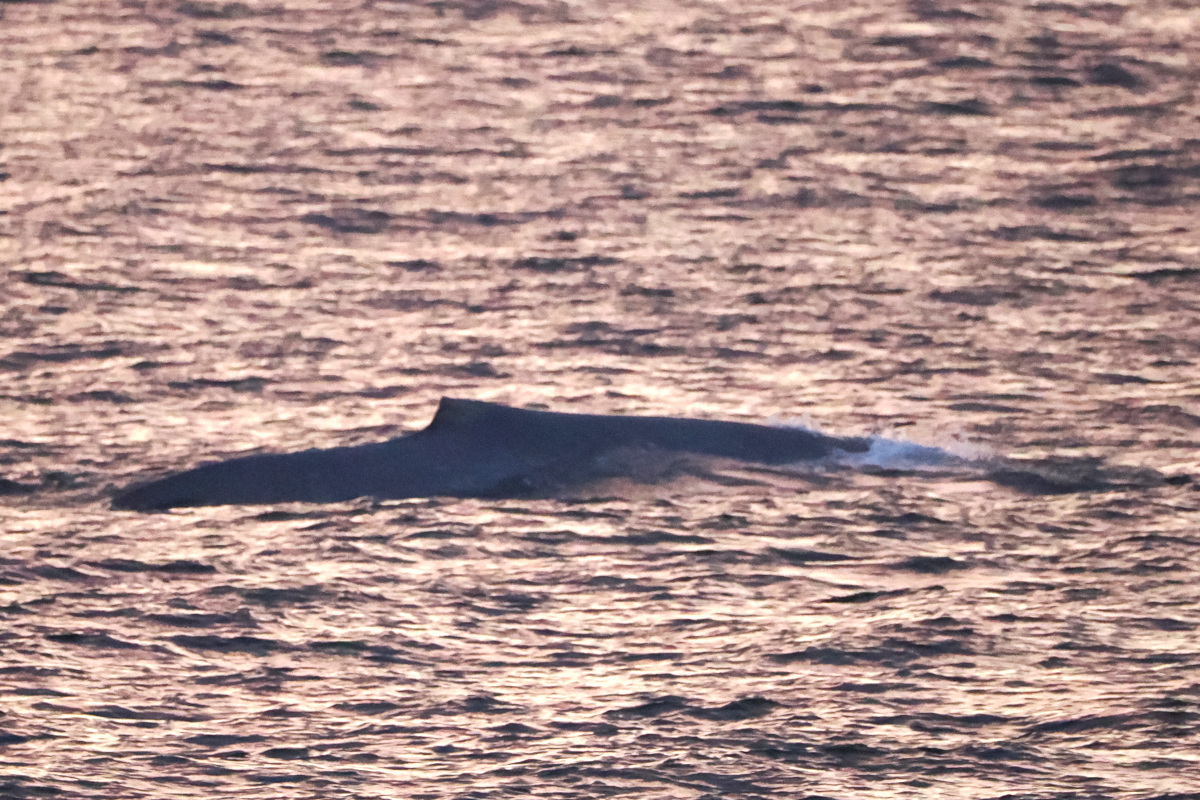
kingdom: Animalia
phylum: Chordata
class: Mammalia
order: Cetacea
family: Balaenopteridae
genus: Balaenoptera
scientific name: Balaenoptera musculus
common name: Blue whale
